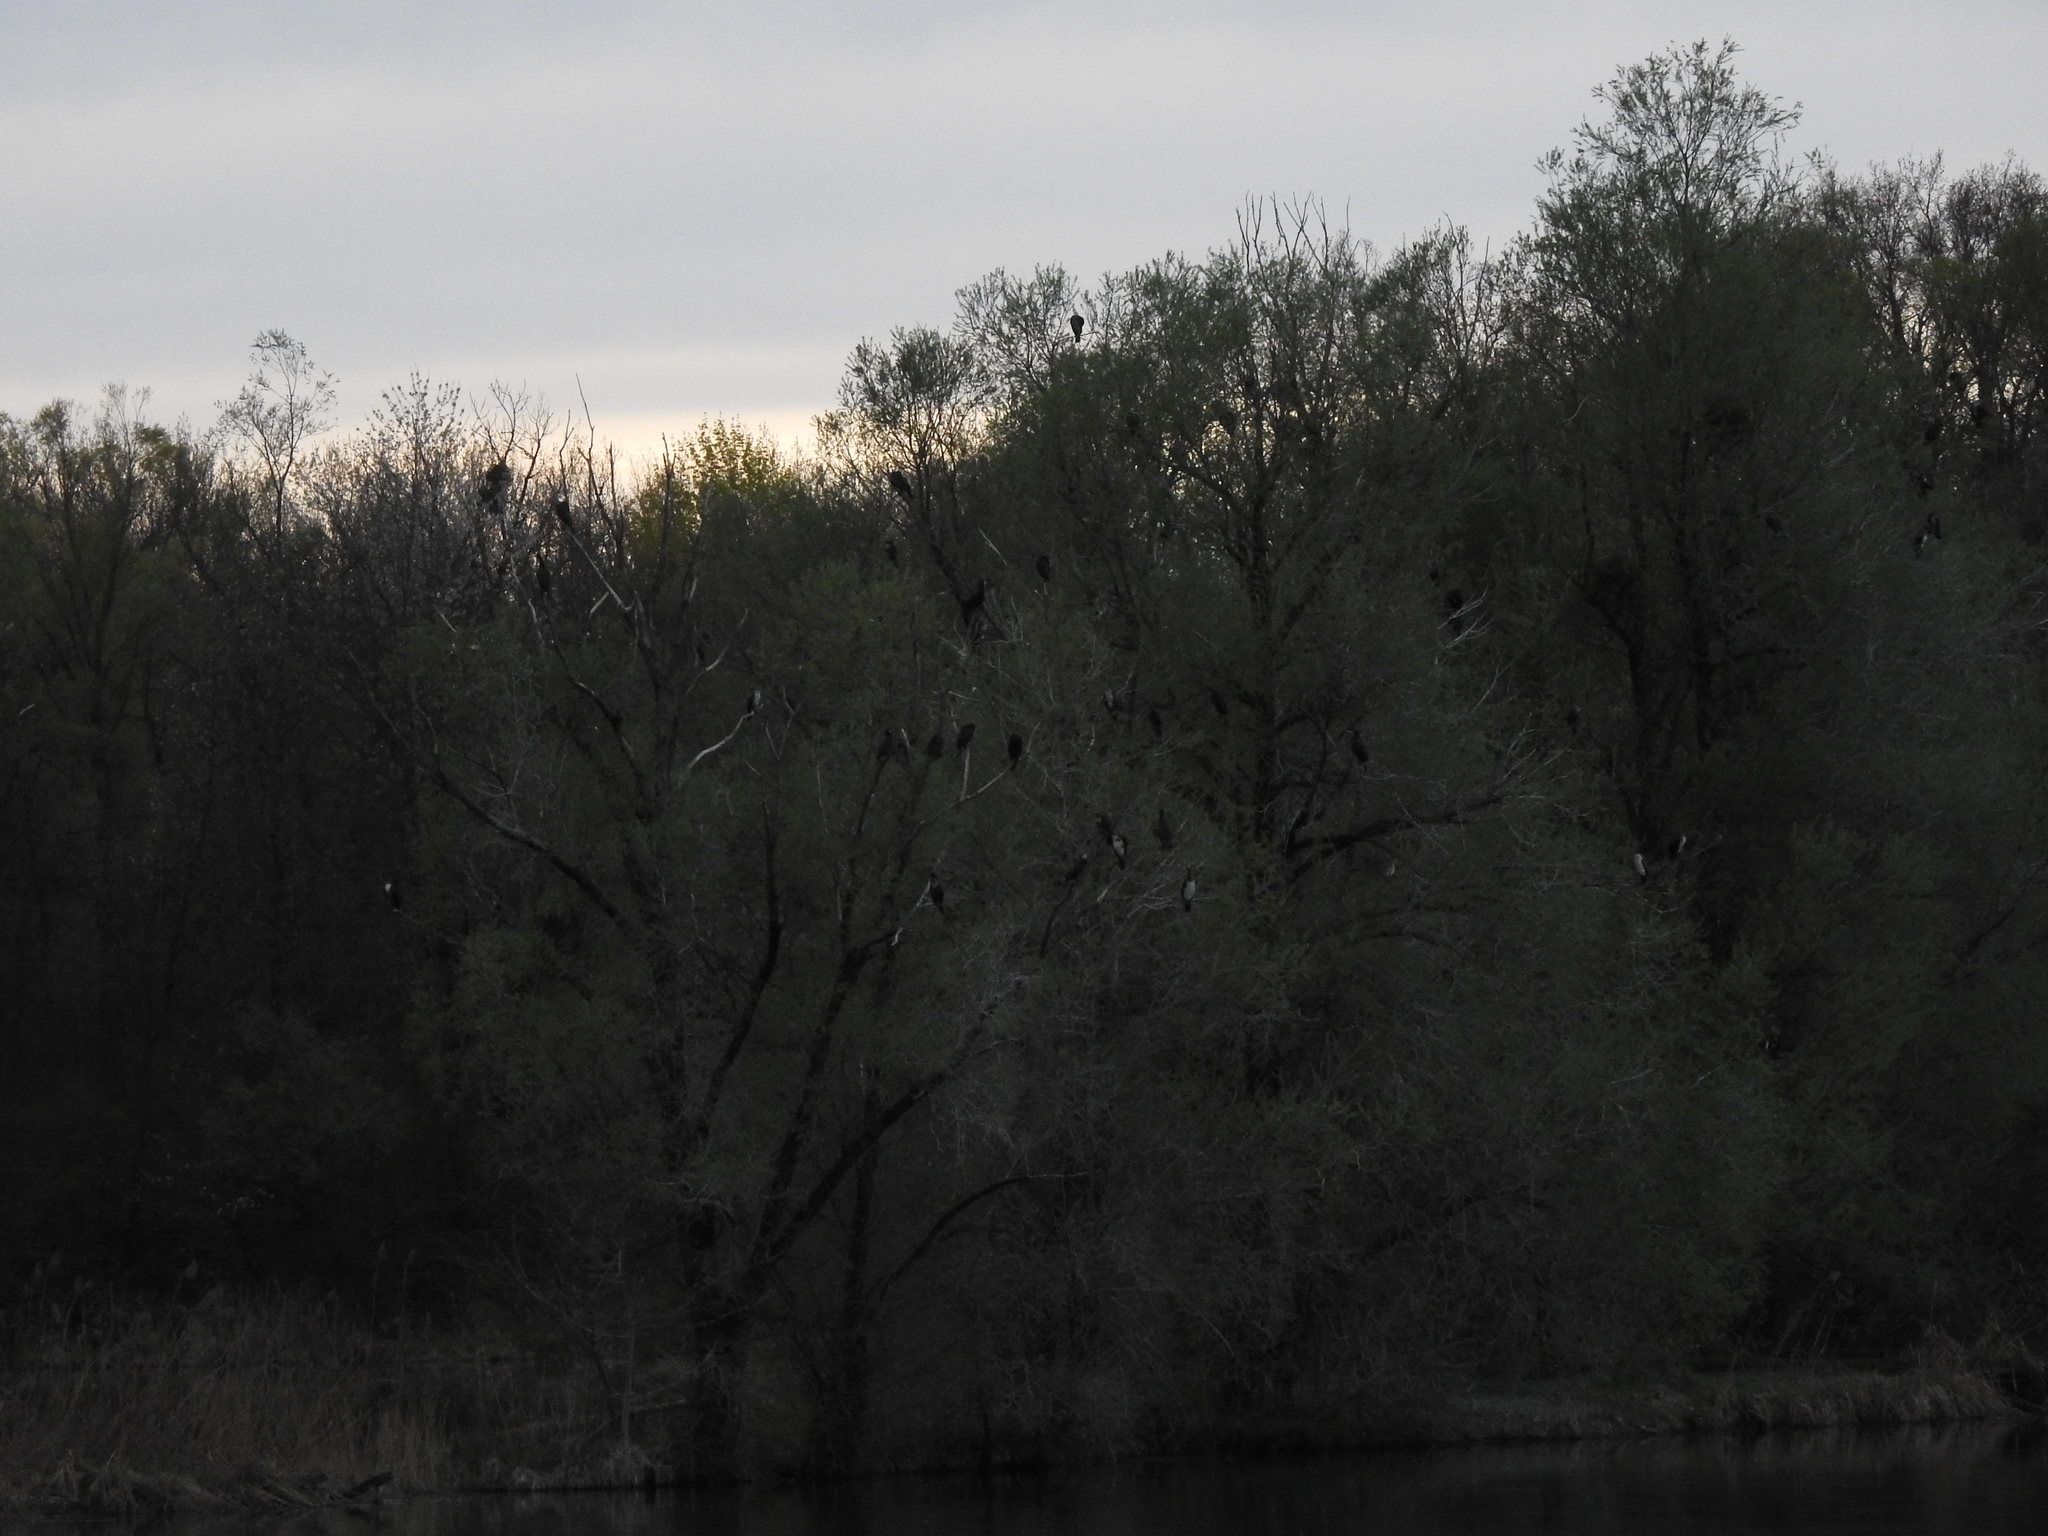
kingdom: Animalia
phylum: Chordata
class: Aves
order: Suliformes
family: Phalacrocoracidae
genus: Phalacrocorax
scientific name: Phalacrocorax carbo
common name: Great cormorant
